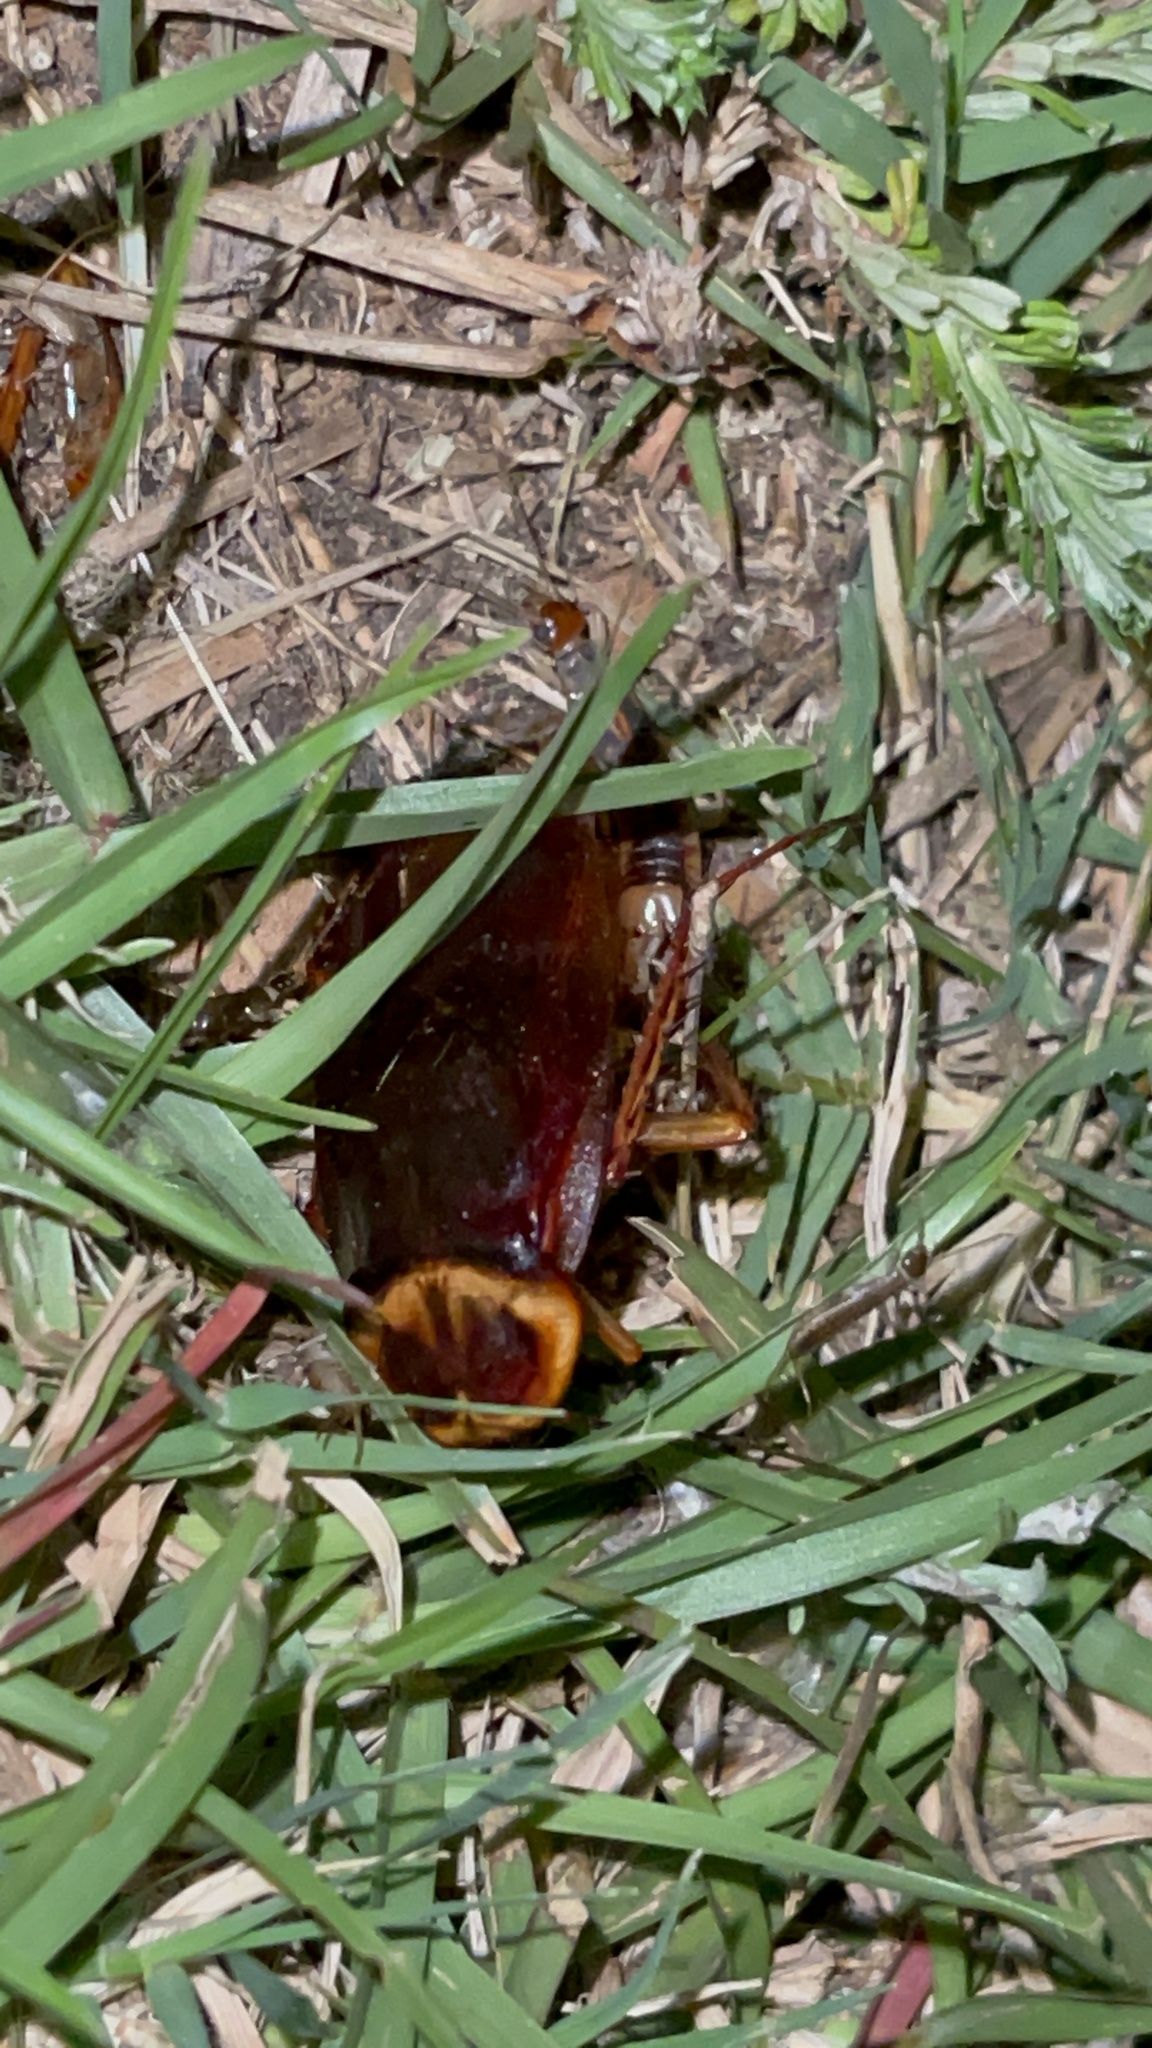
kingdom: Animalia
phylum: Arthropoda
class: Insecta
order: Blattodea
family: Blattidae
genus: Periplaneta
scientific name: Periplaneta americana
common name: American cockroach
